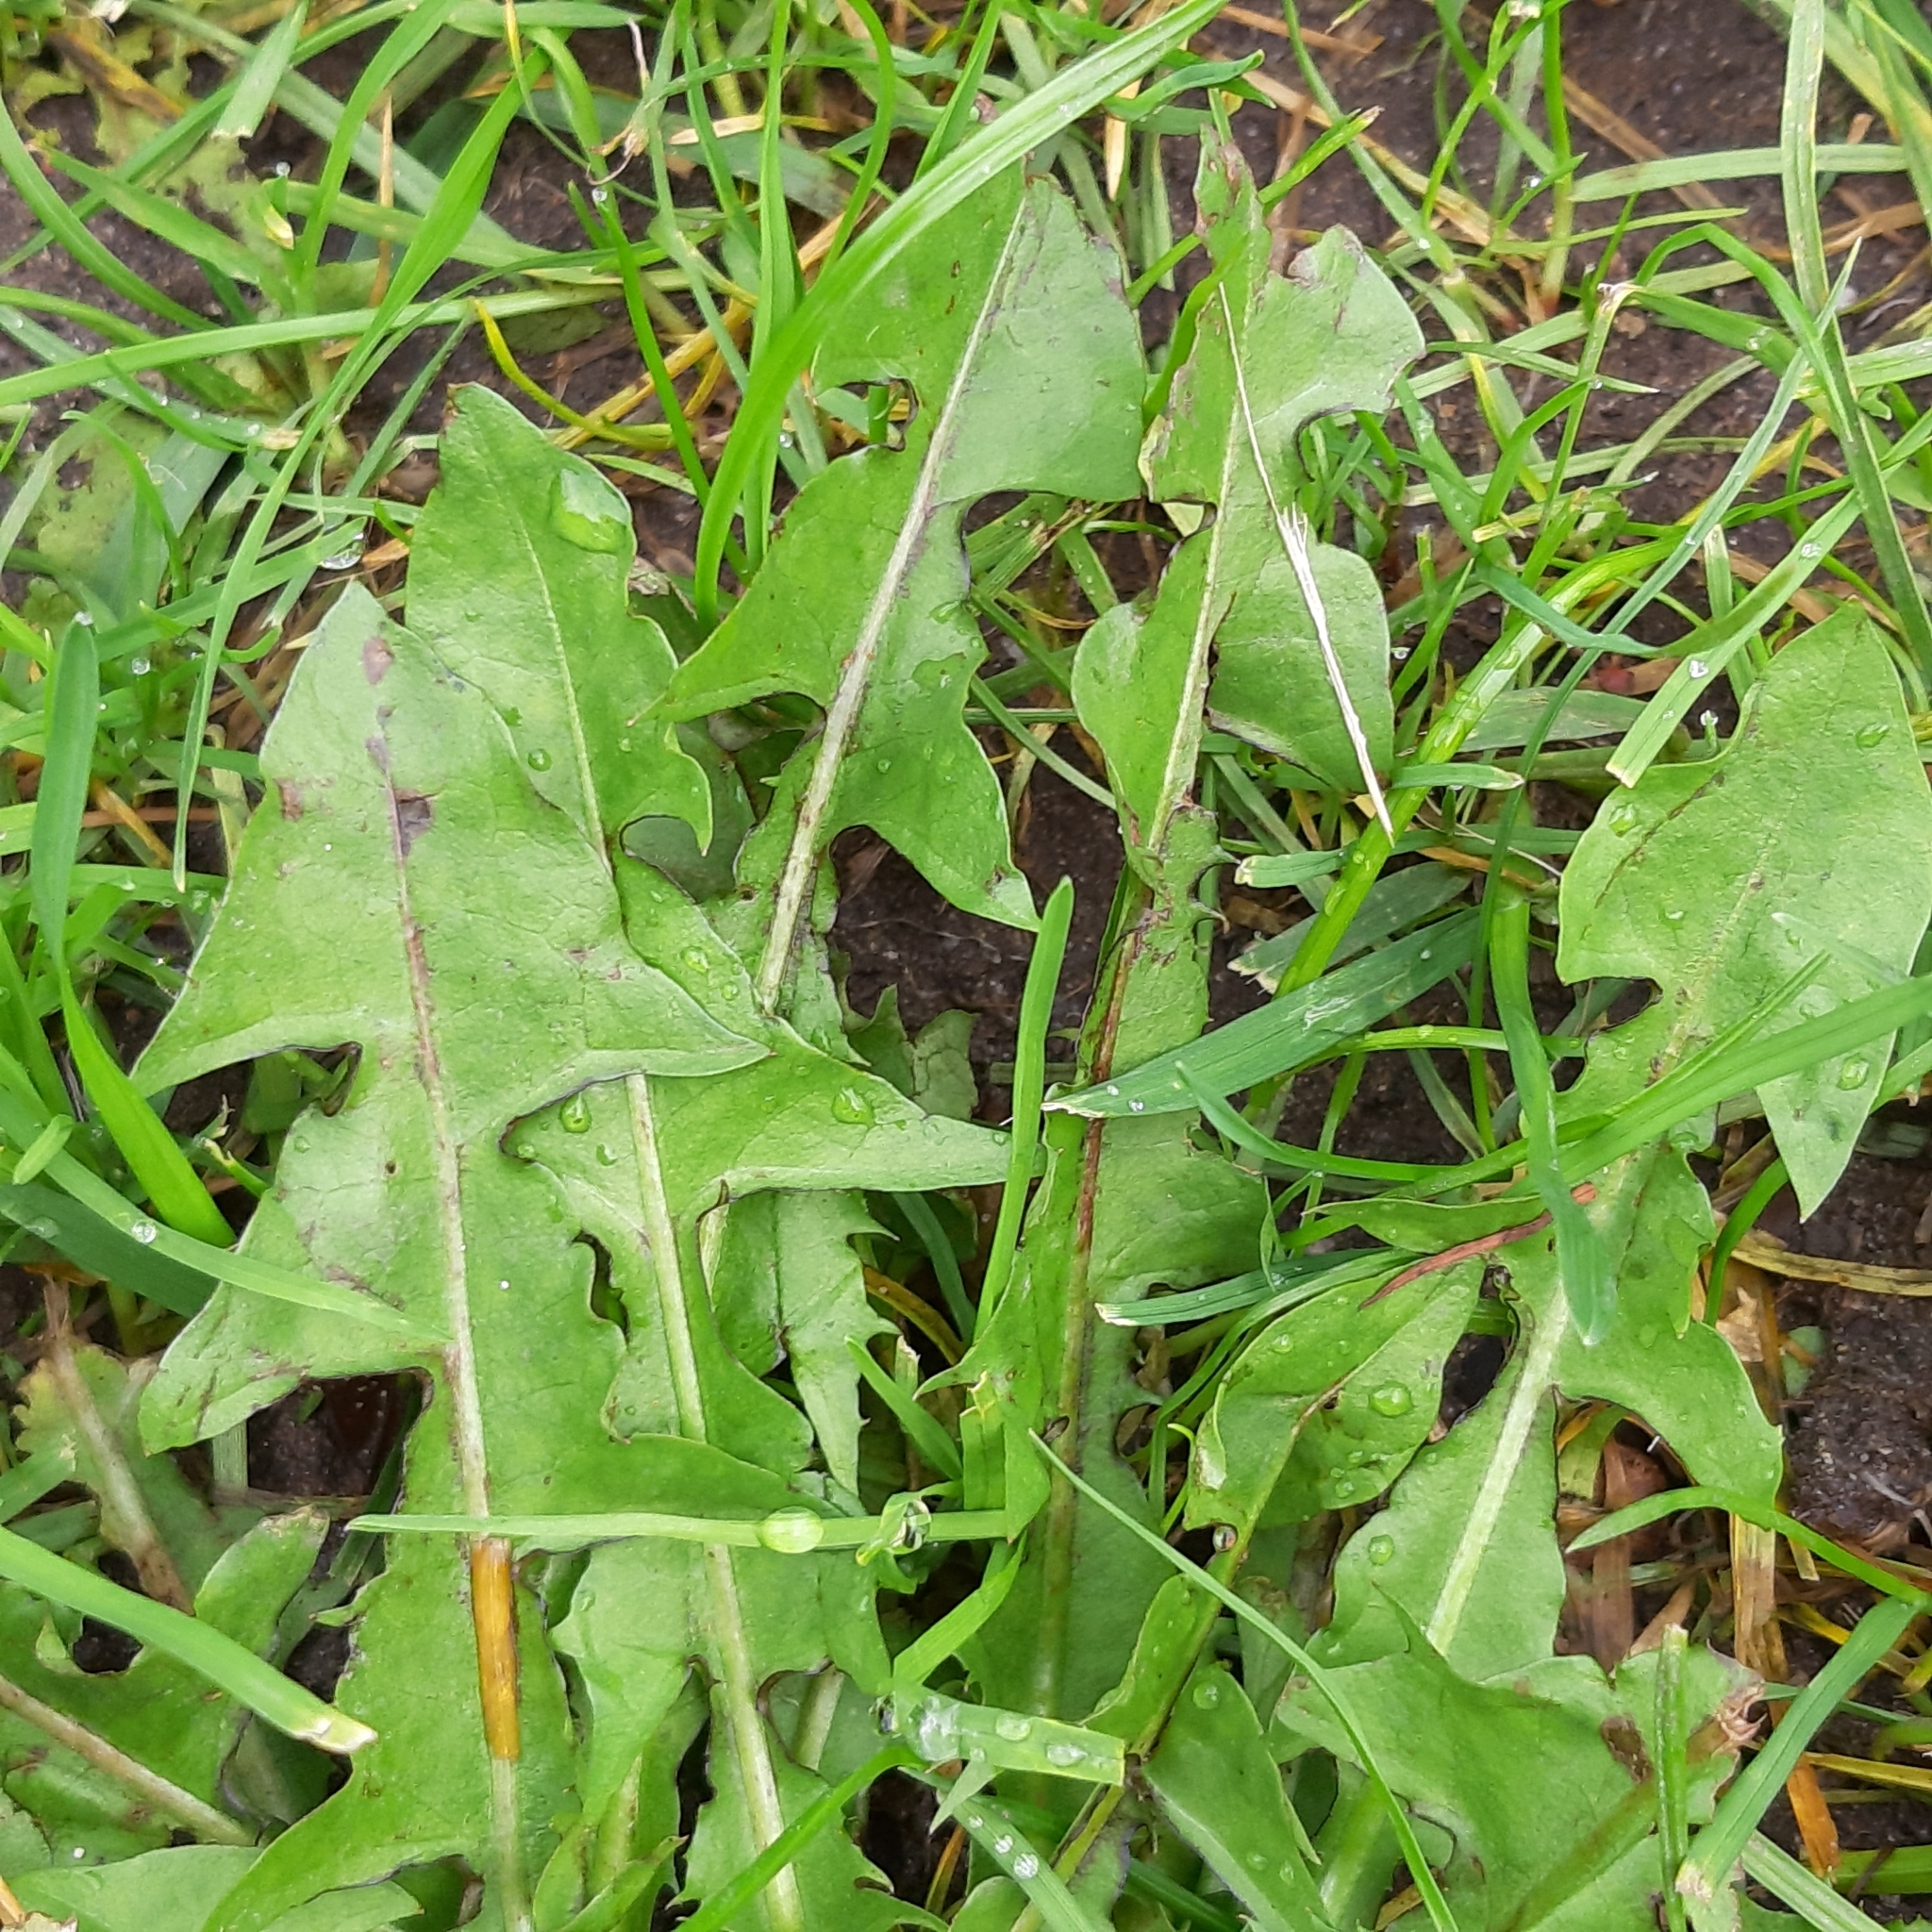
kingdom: Plantae
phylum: Tracheophyta
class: Magnoliopsida
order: Asterales
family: Asteraceae
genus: Taraxacum
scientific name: Taraxacum officinale
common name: Common dandelion
